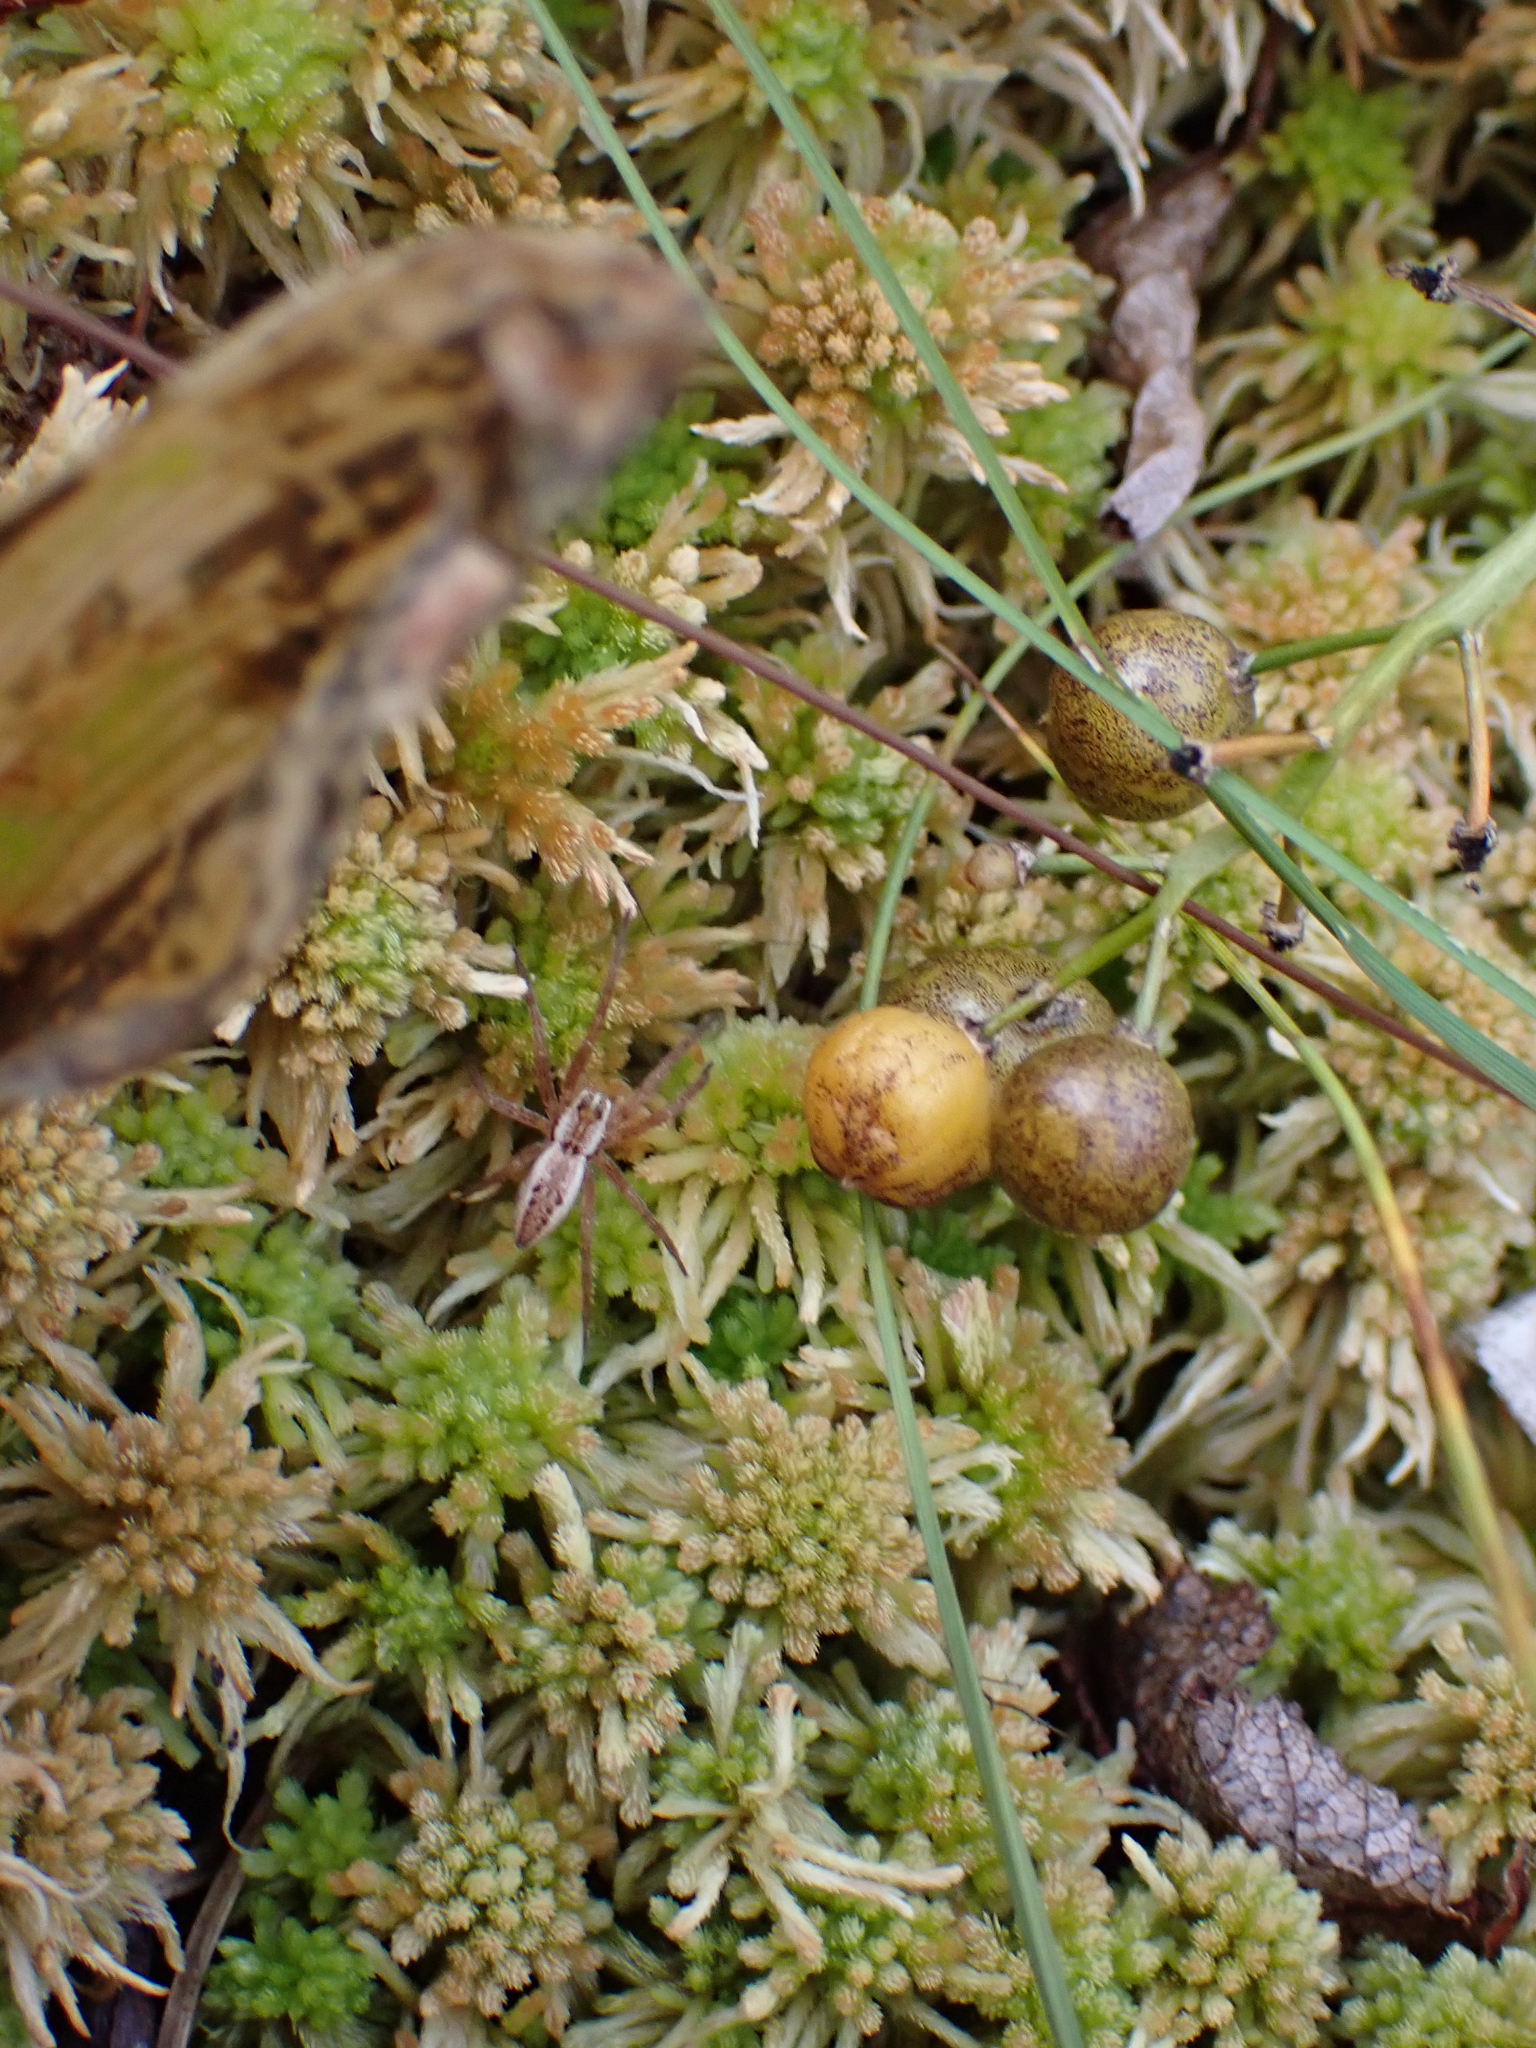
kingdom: Plantae
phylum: Tracheophyta
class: Liliopsida
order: Asparagales
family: Asparagaceae
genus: Maianthemum
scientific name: Maianthemum trifolium
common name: Swamp false solomon's seal
